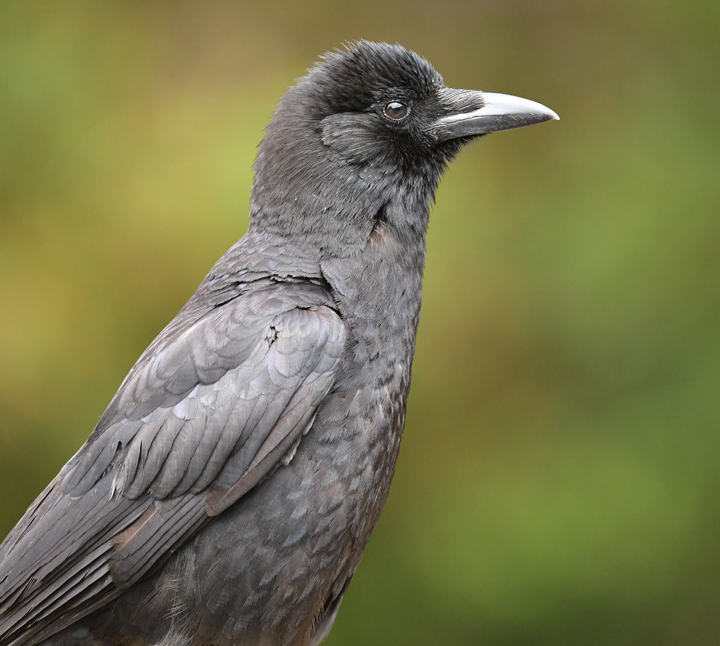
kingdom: Animalia
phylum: Chordata
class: Aves
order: Passeriformes
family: Corvidae
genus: Corvus
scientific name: Corvus brachyrhynchos
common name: American crow
